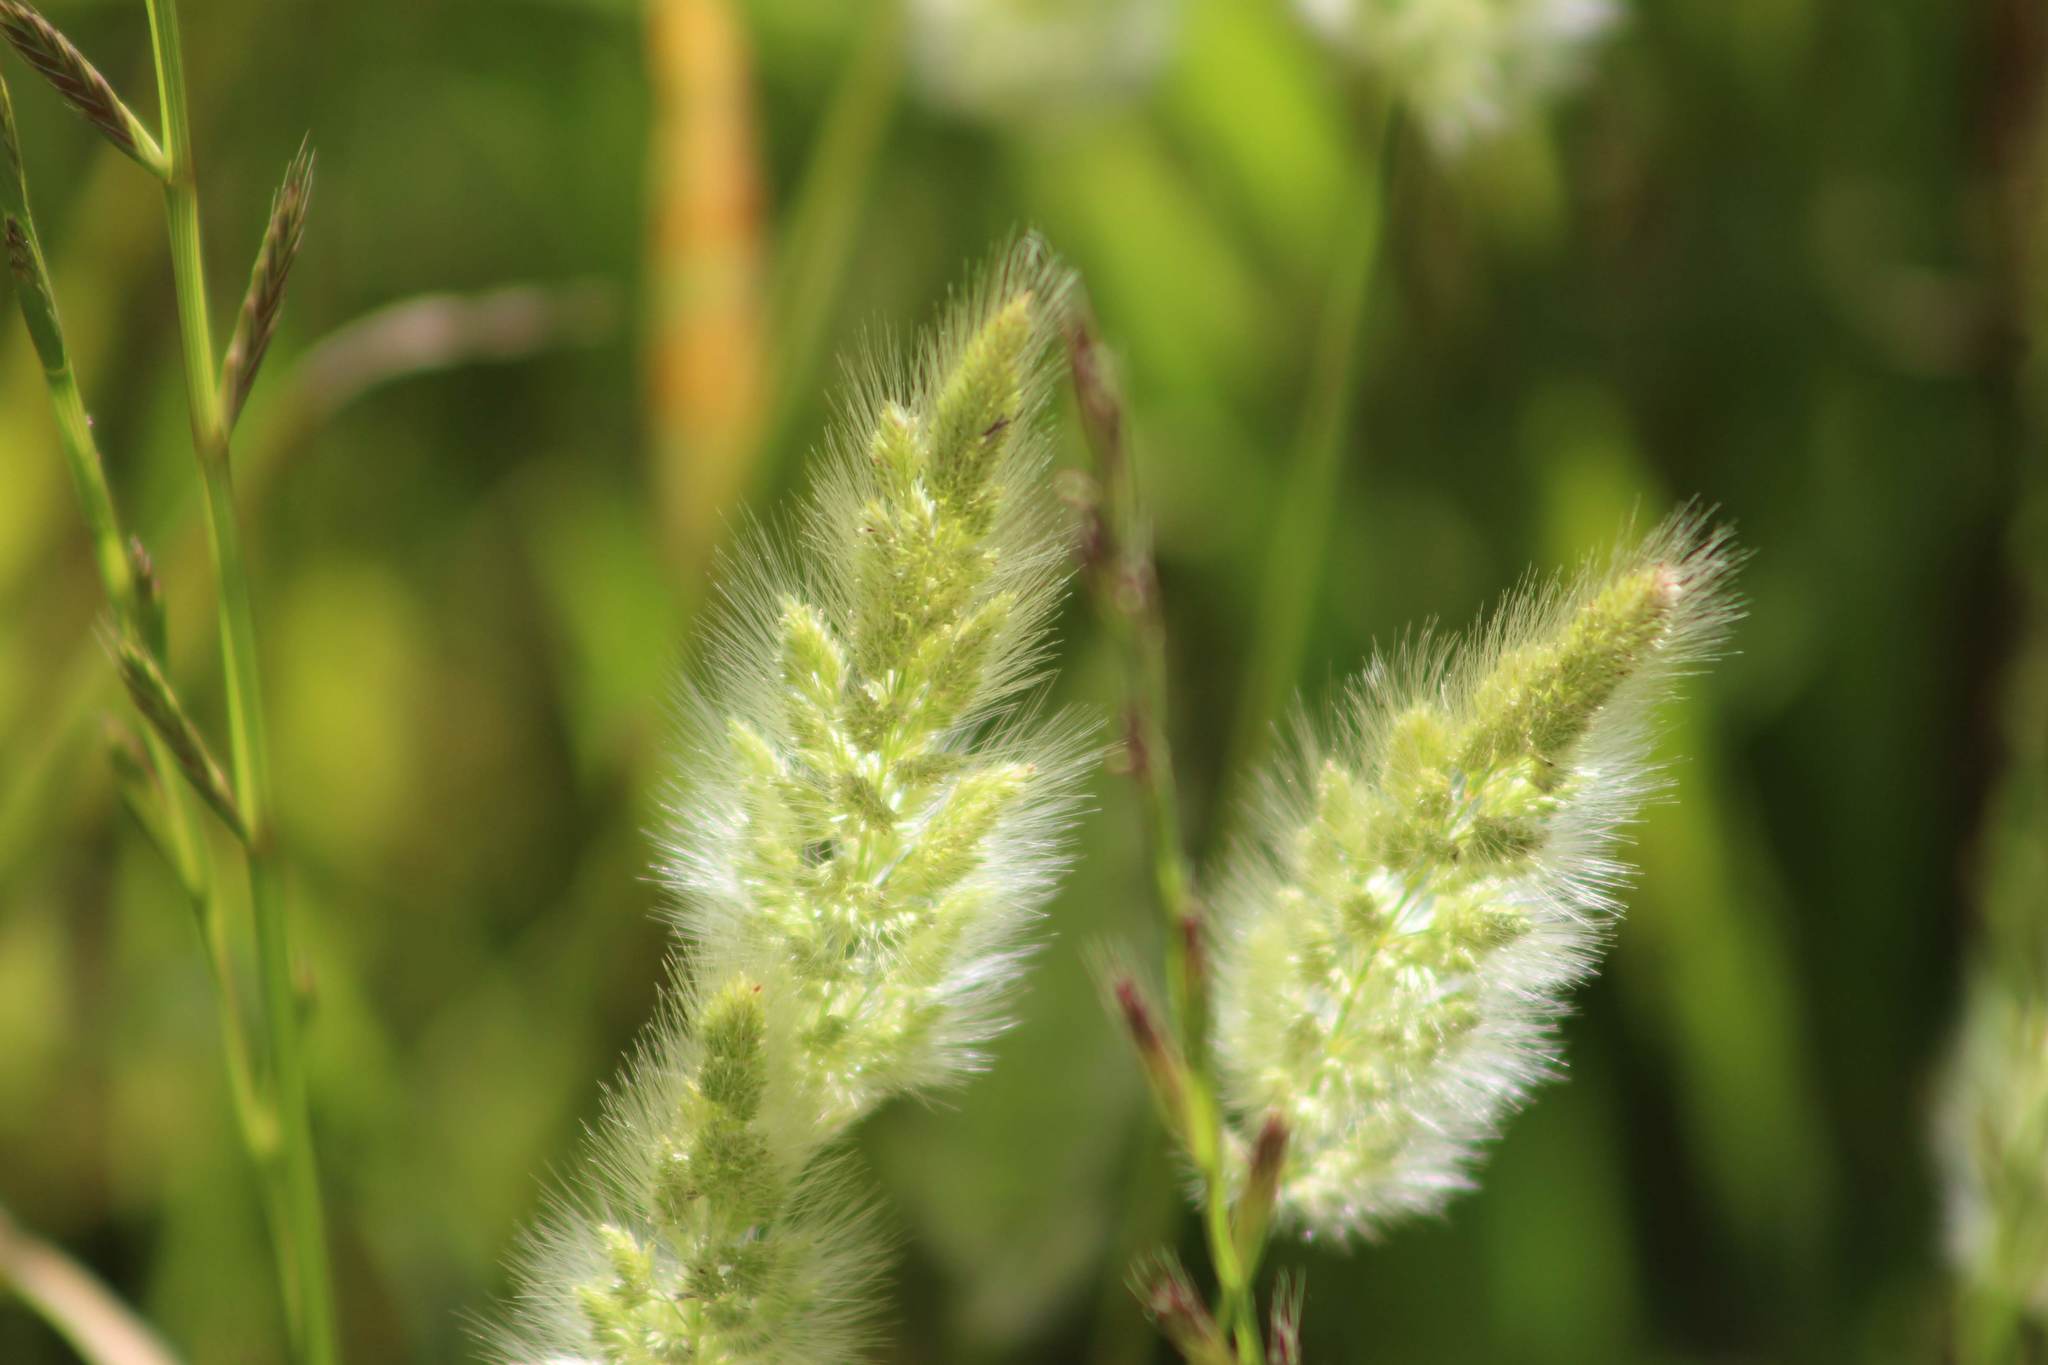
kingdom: Plantae
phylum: Tracheophyta
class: Liliopsida
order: Poales
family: Poaceae
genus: Polypogon
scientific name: Polypogon monspeliensis
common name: Annual rabbitsfoot grass
